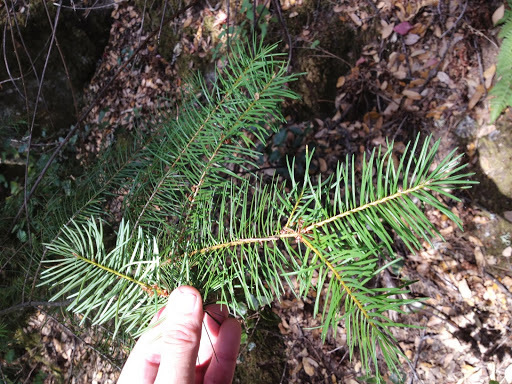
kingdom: Plantae
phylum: Tracheophyta
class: Pinopsida
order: Pinales
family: Pinaceae
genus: Pseudotsuga
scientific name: Pseudotsuga menziesii
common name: Douglas fir
